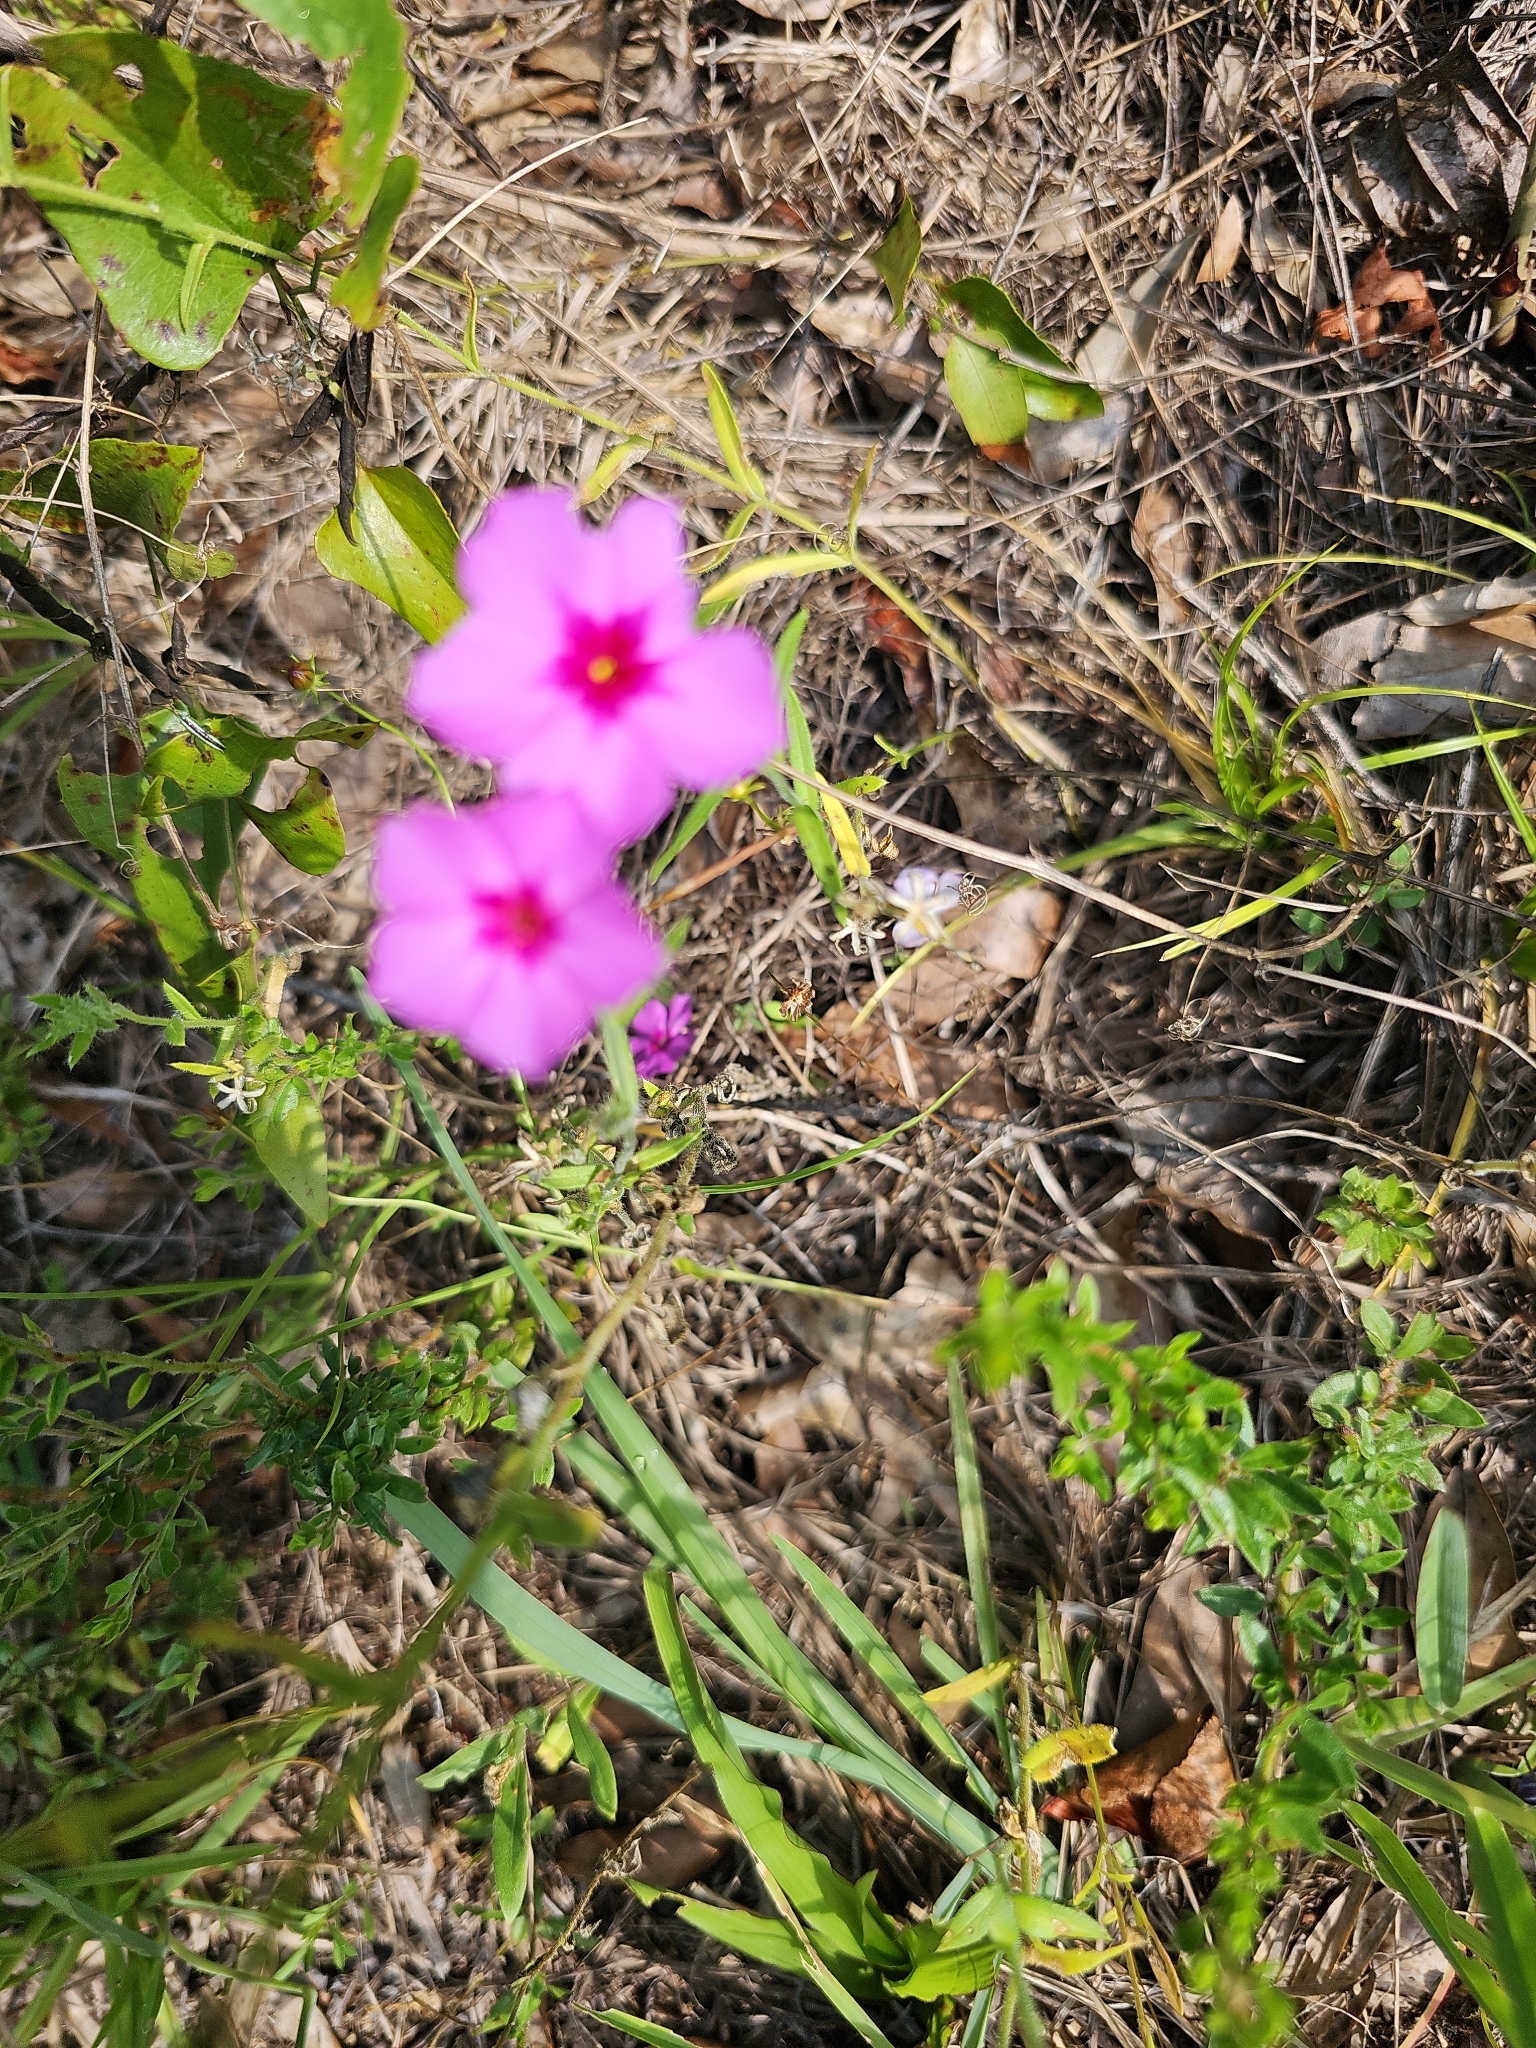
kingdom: Plantae
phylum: Tracheophyta
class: Magnoliopsida
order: Ericales
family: Polemoniaceae
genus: Phlox
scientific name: Phlox drummondii
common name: Drummond's phlox
